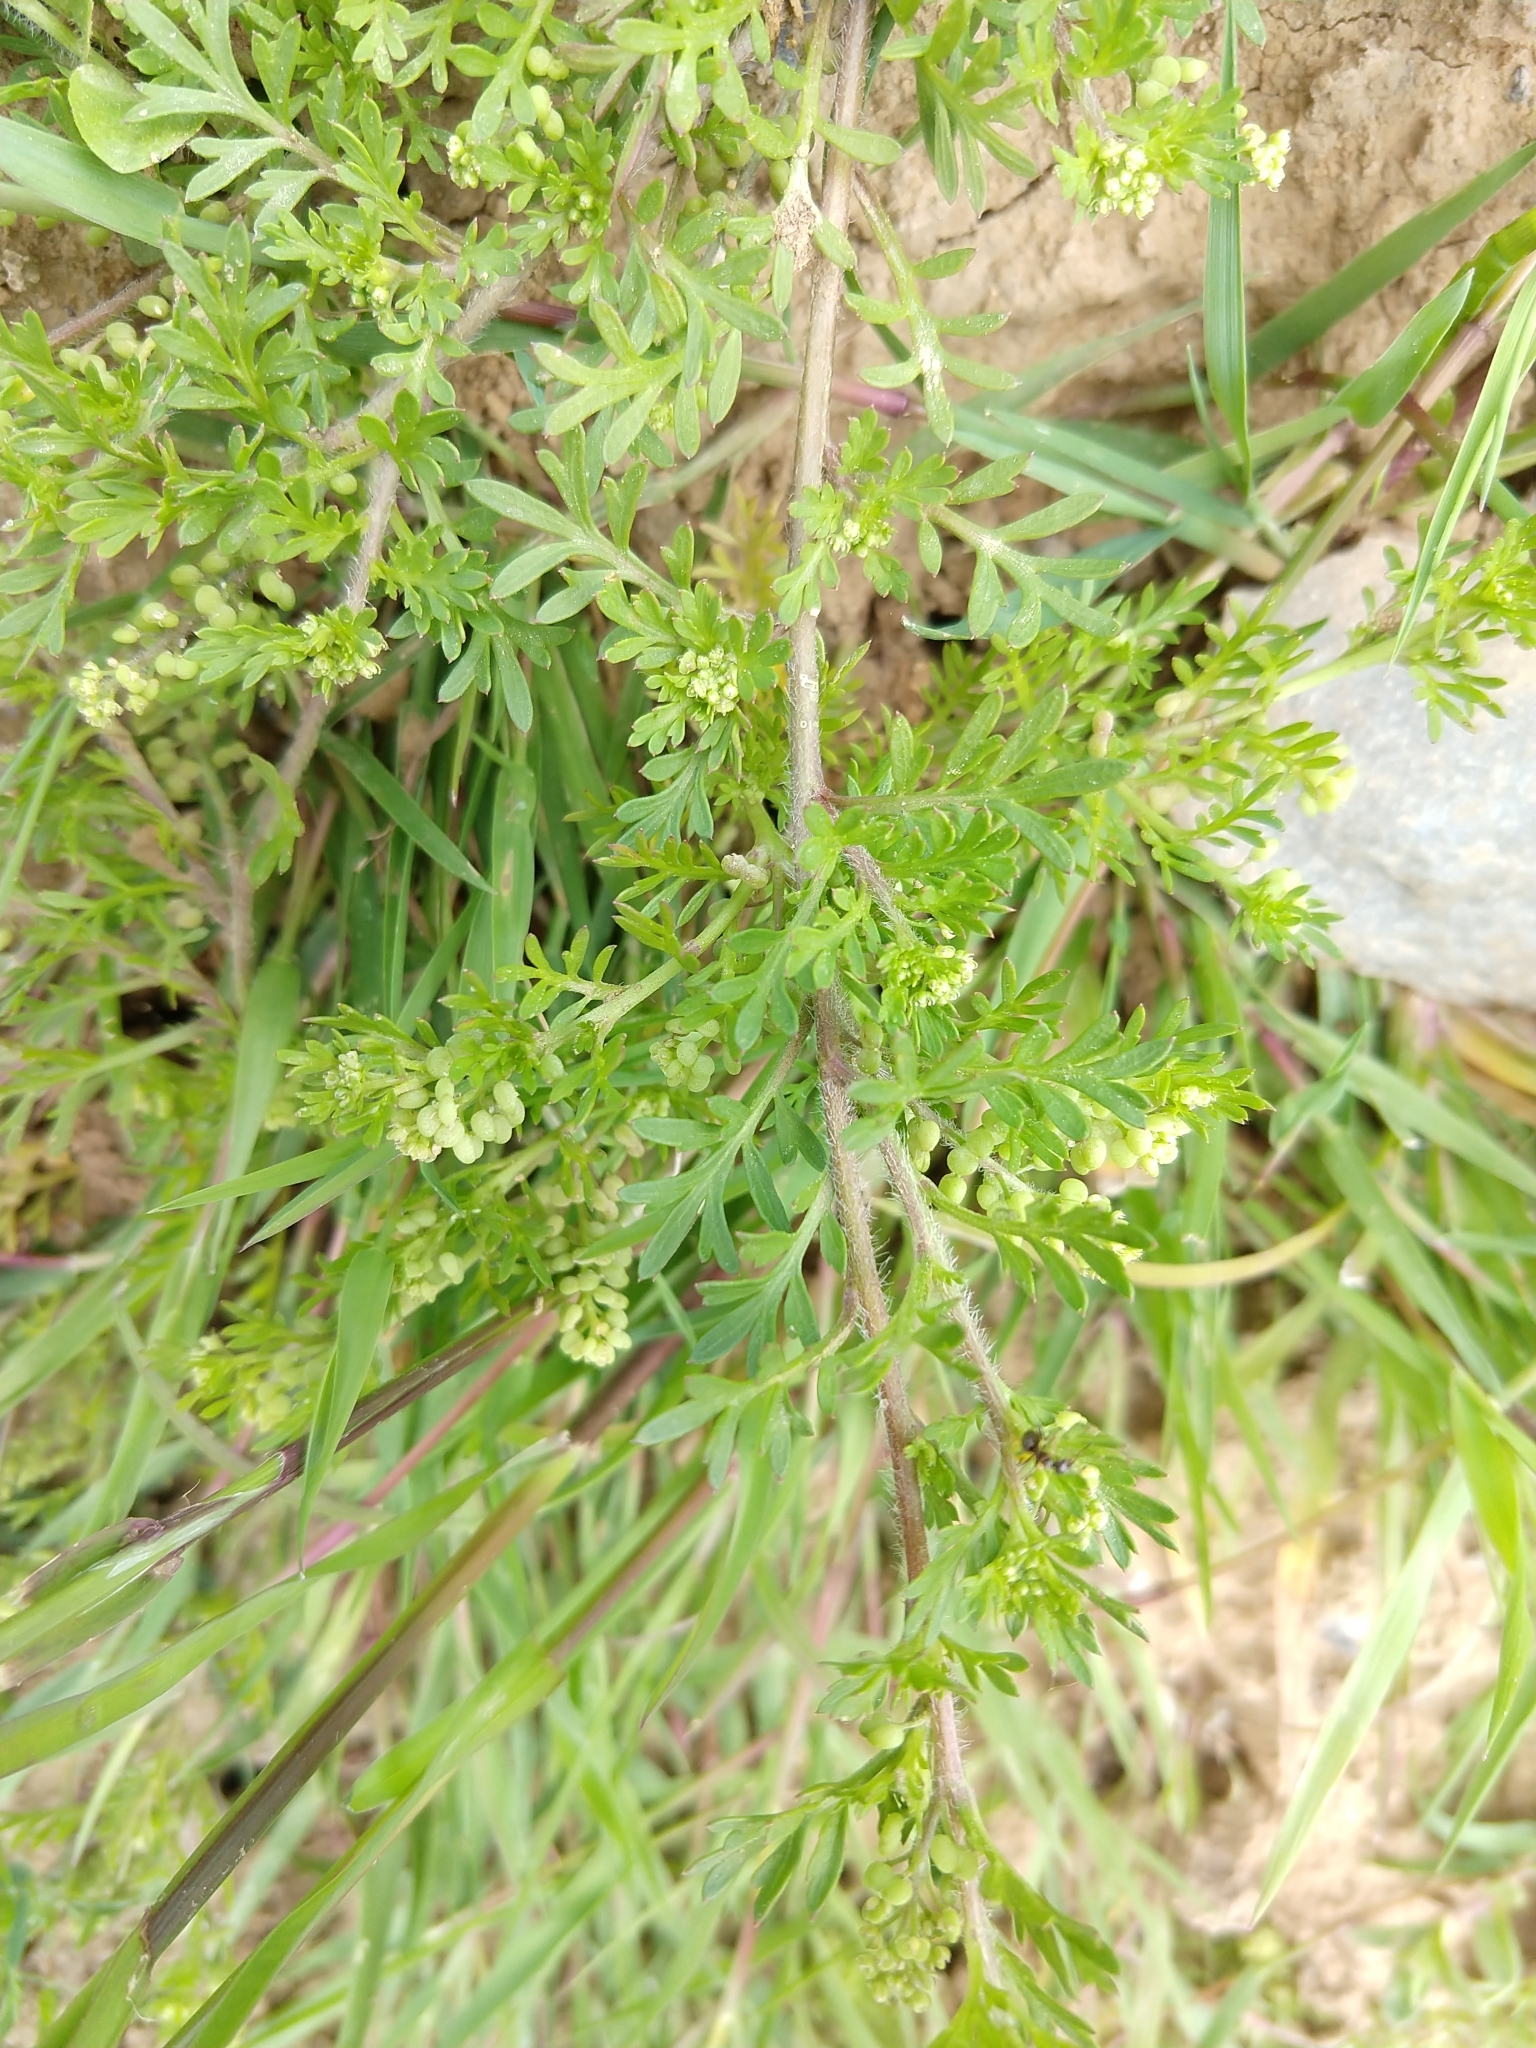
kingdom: Plantae
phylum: Tracheophyta
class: Magnoliopsida
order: Brassicales
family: Brassicaceae
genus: Lepidium
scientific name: Lepidium didymum
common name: Lesser swinecress
